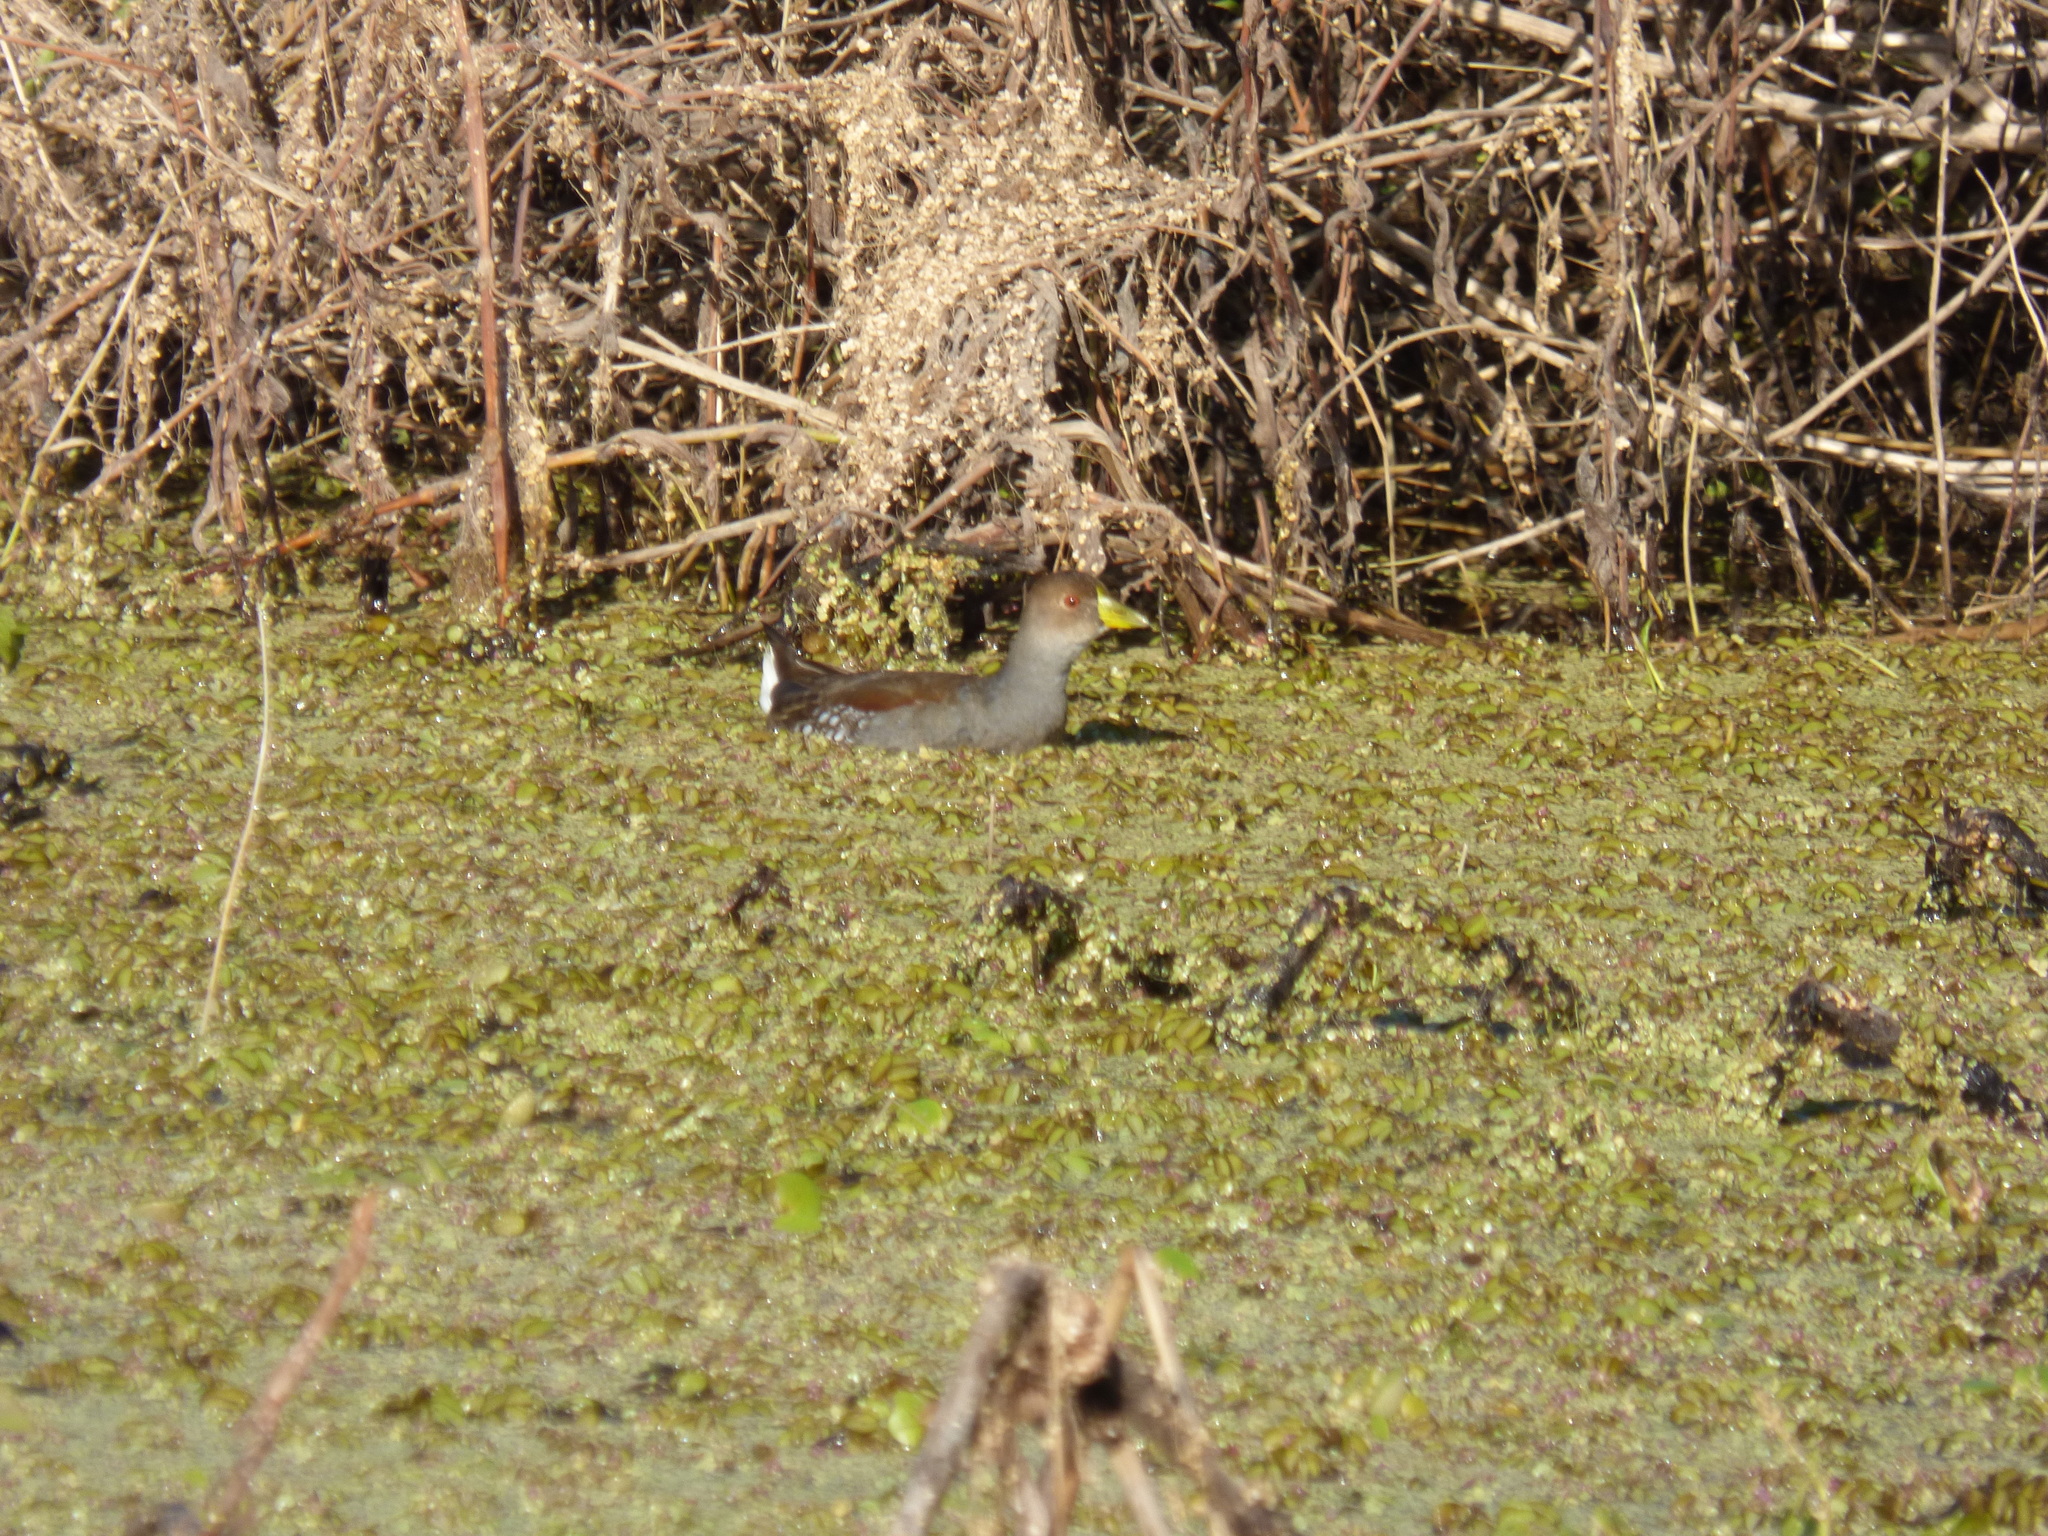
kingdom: Animalia
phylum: Chordata
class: Aves
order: Gruiformes
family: Rallidae
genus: Gallinula
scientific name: Gallinula melanops
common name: Spot-flanked gallinule
